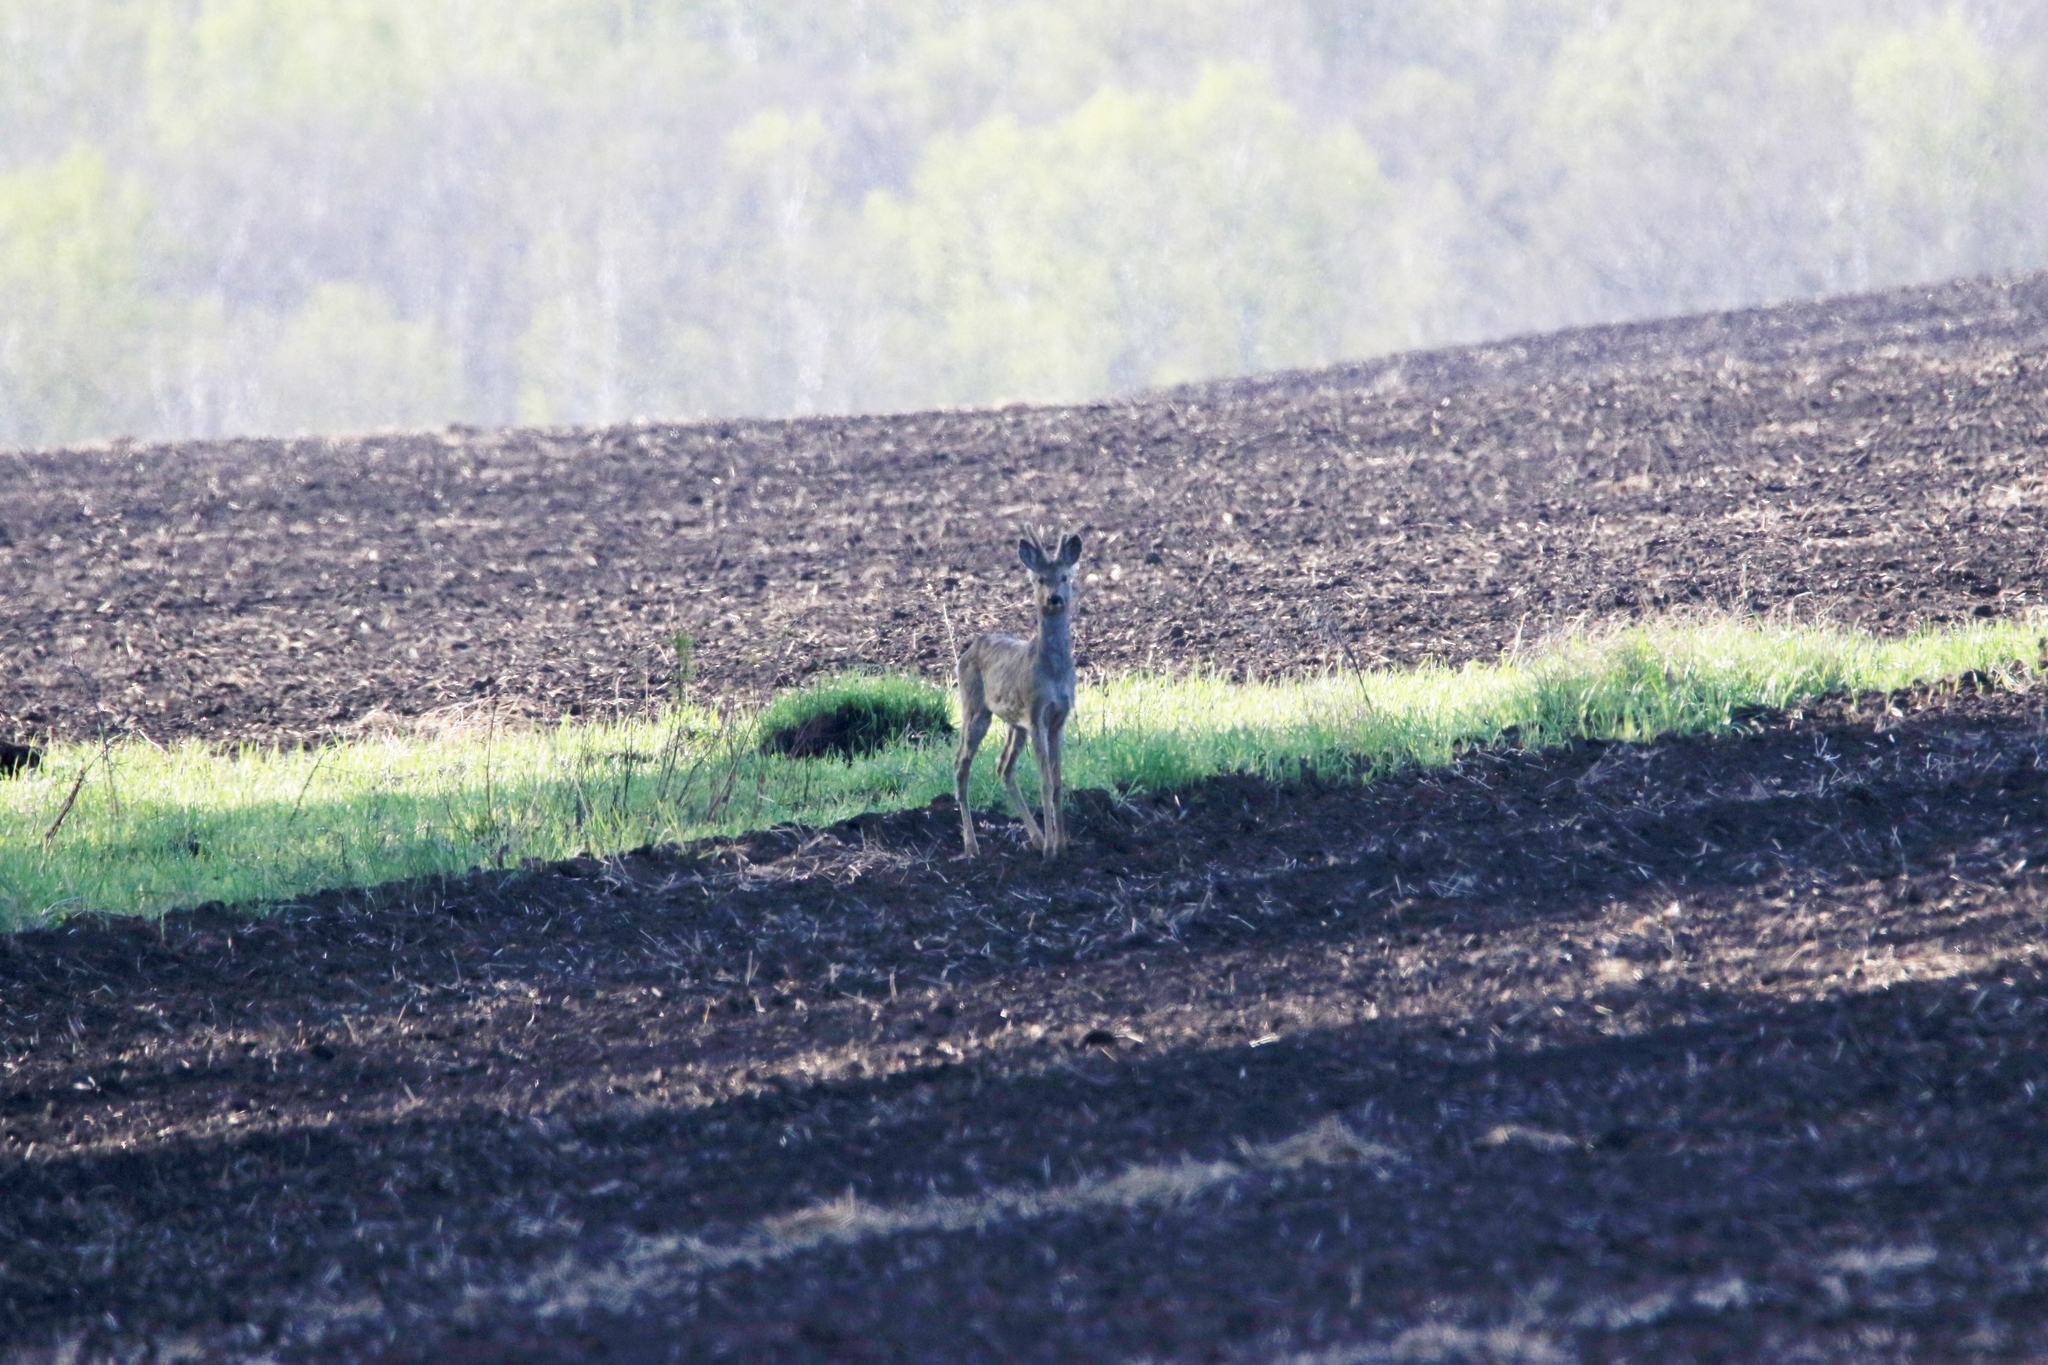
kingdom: Animalia
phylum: Chordata
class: Mammalia
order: Artiodactyla
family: Cervidae
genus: Capreolus
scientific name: Capreolus pygargus
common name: Siberian roe
